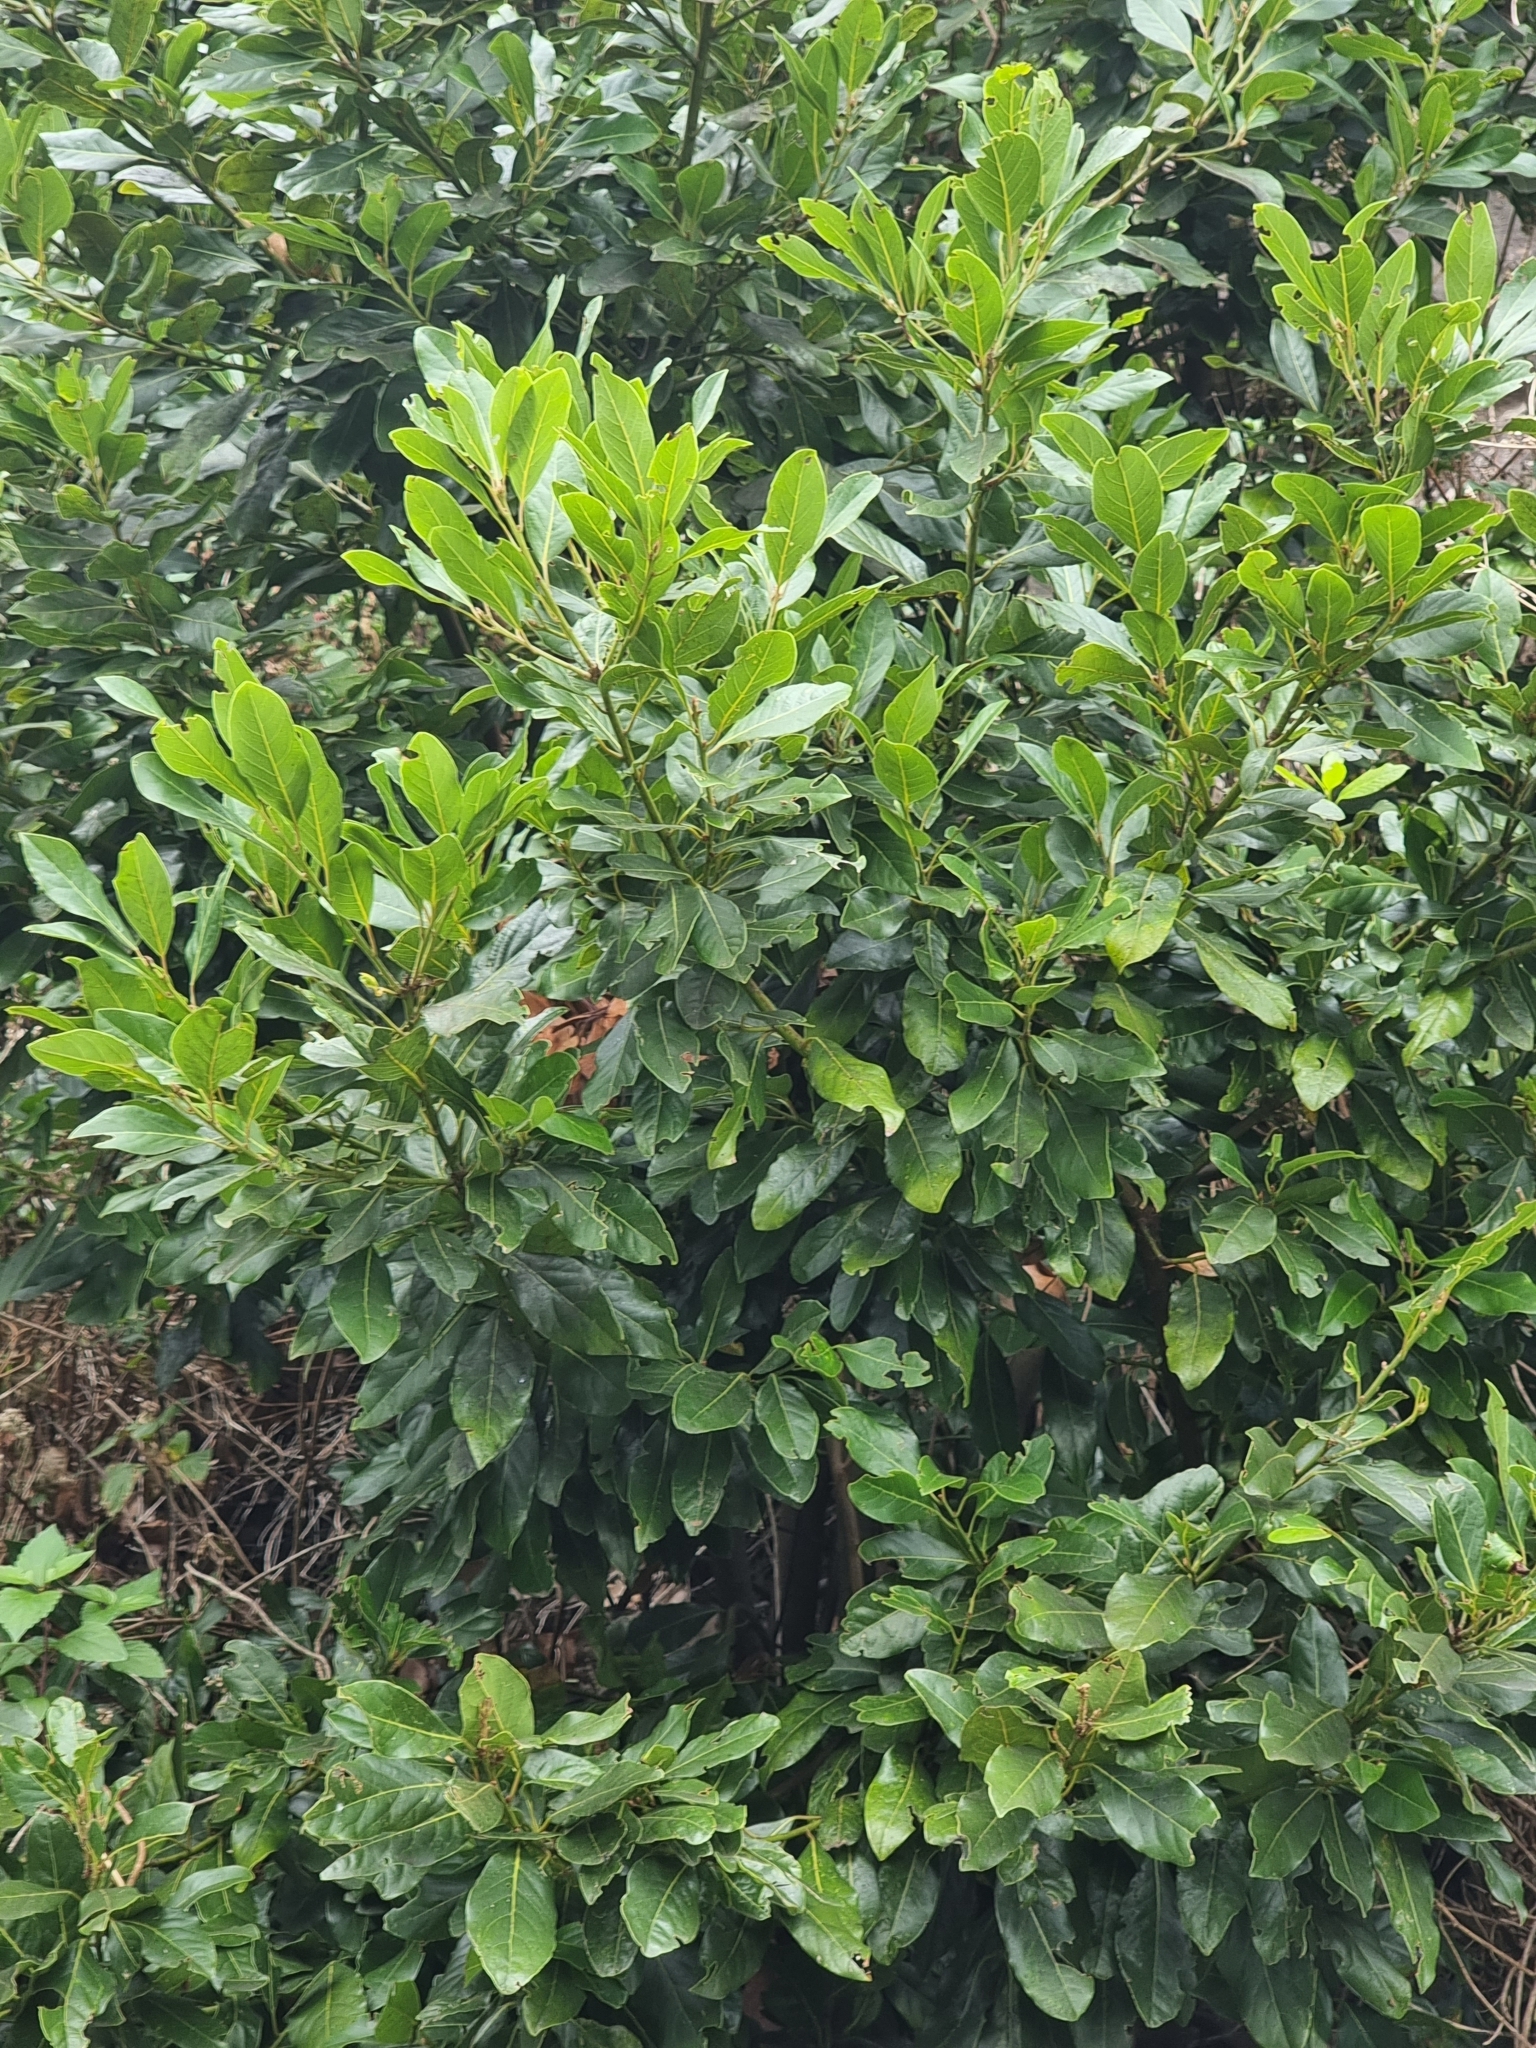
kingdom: Plantae
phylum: Tracheophyta
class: Magnoliopsida
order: Laurales
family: Lauraceae
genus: Laurus
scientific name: Laurus novocanariensis
